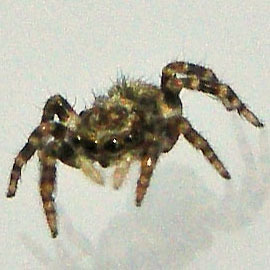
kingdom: Animalia
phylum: Arthropoda
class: Arachnida
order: Araneae
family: Salticidae
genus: Pseudeuophrys
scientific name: Pseudeuophrys erratica
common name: Jumping spider
